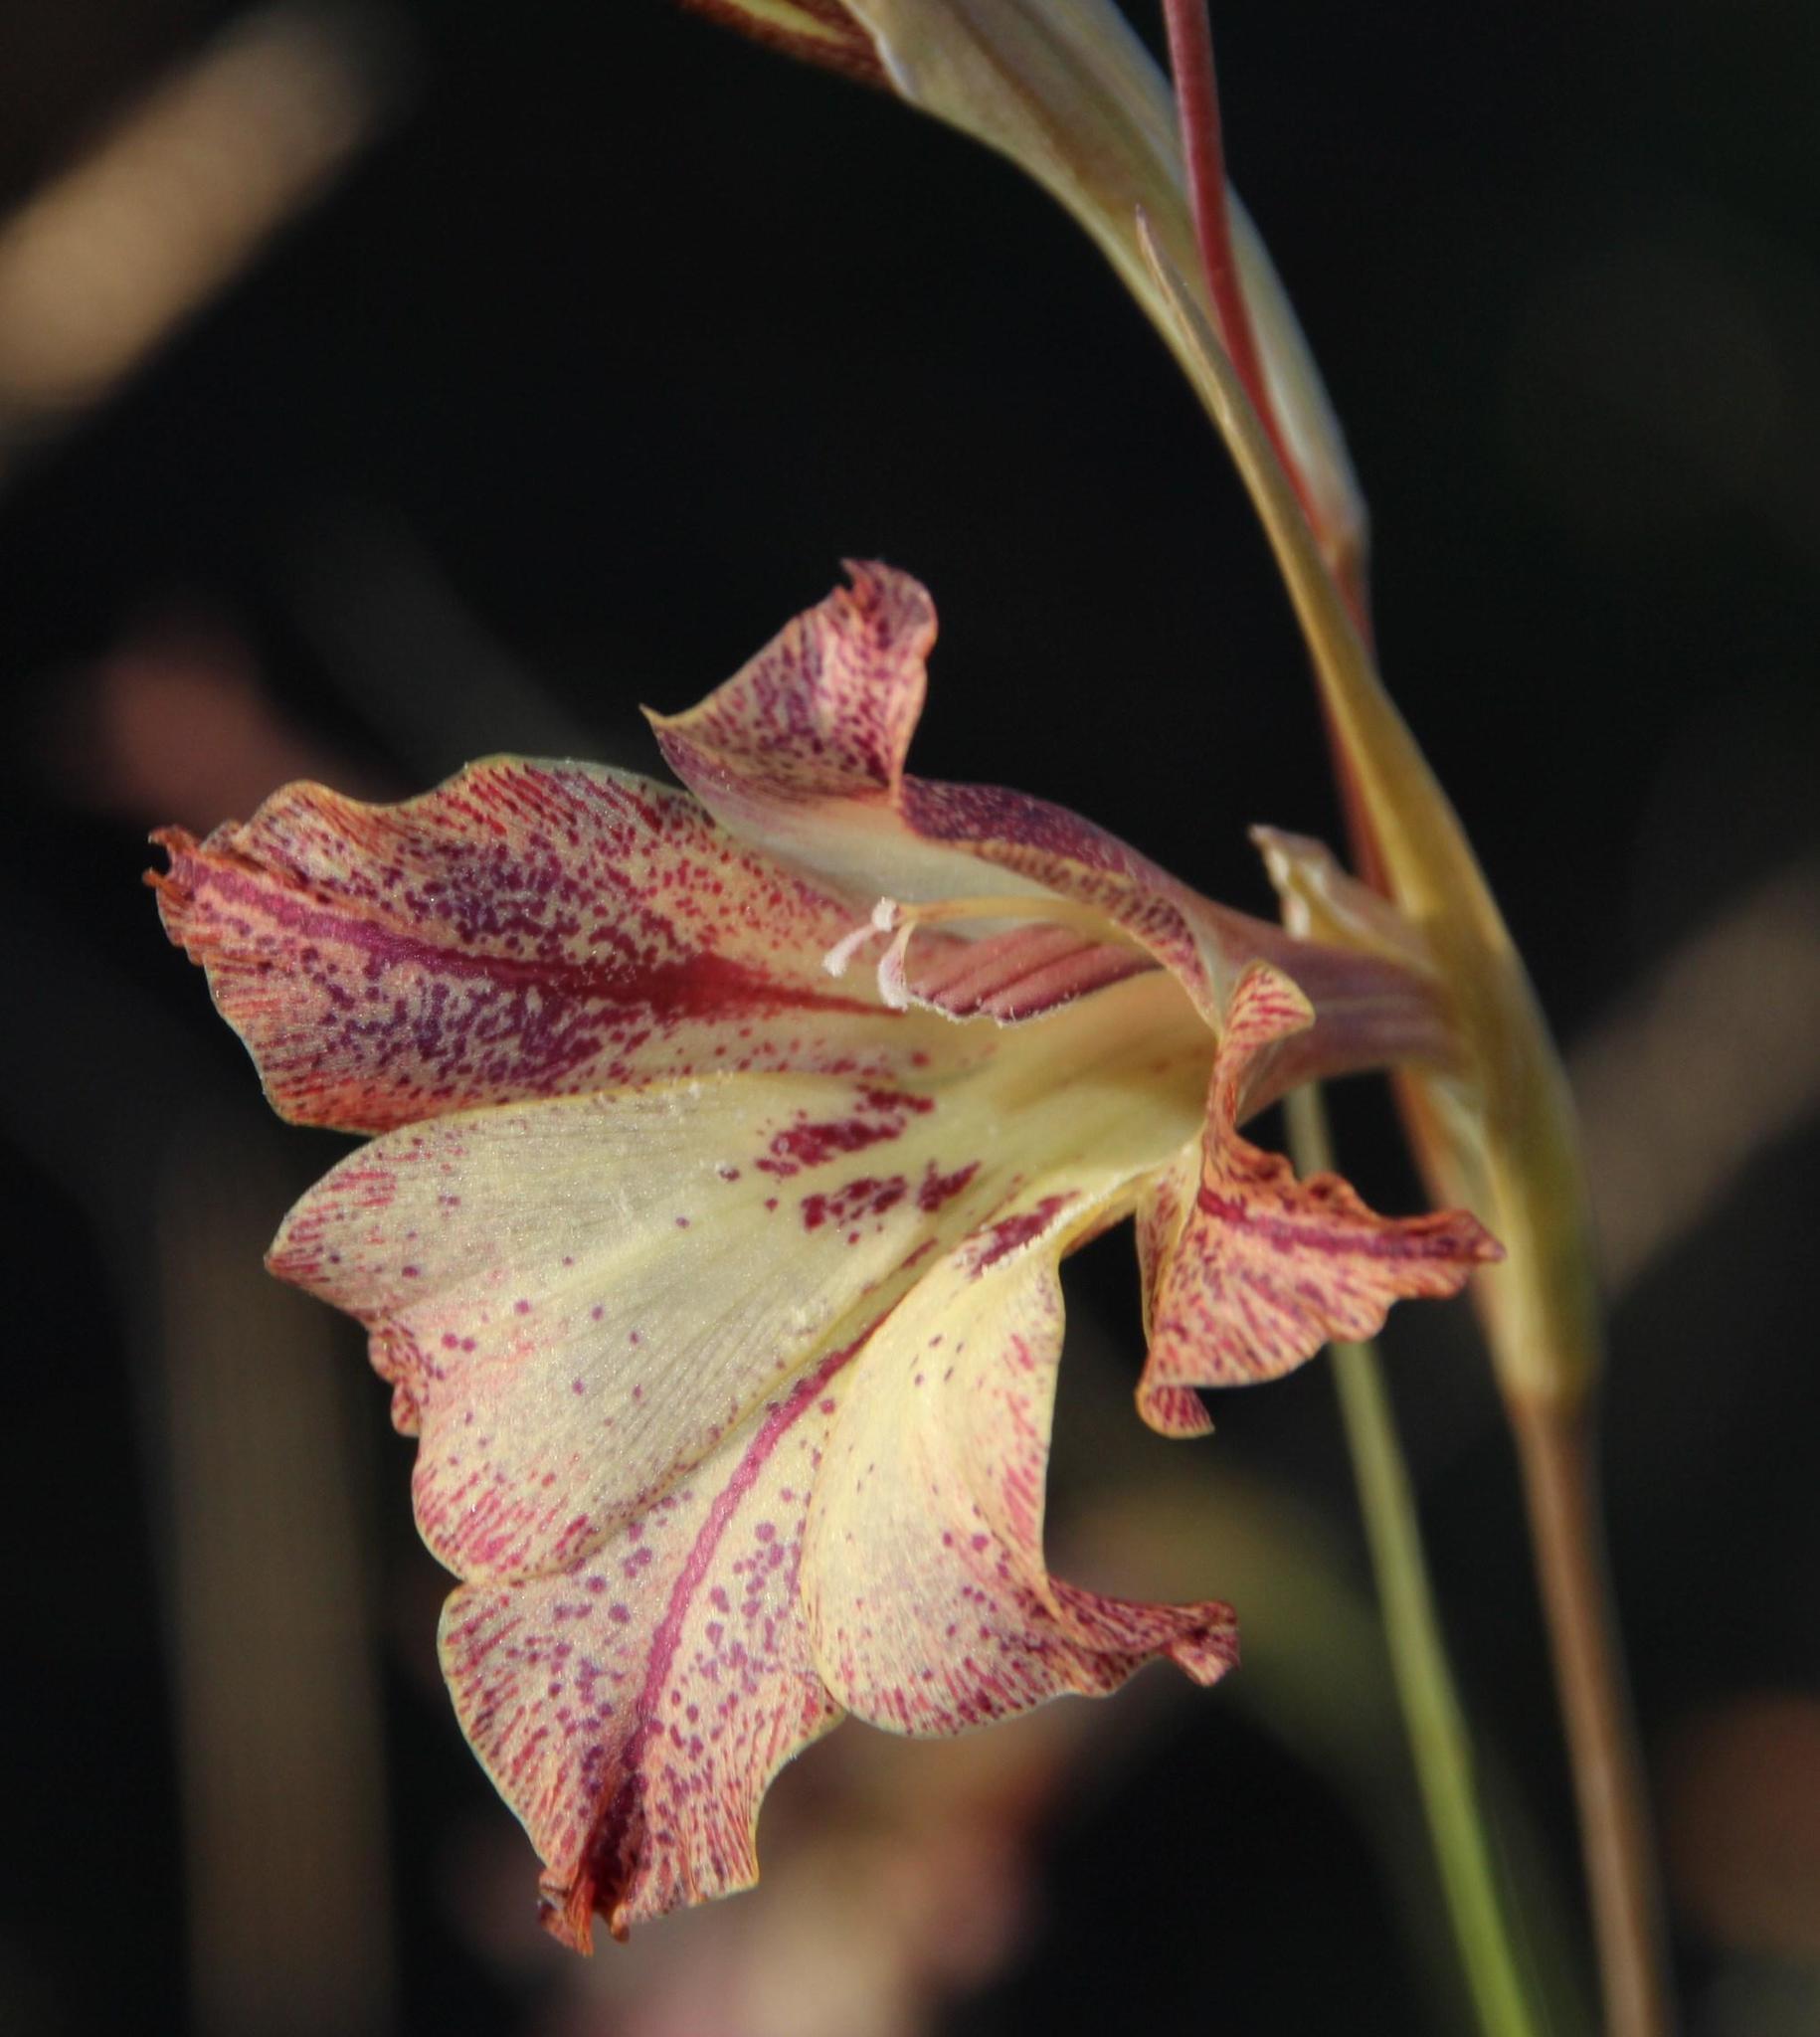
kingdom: Plantae
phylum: Tracheophyta
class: Liliopsida
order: Asparagales
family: Iridaceae
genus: Gladiolus
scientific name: Gladiolus maculatus
